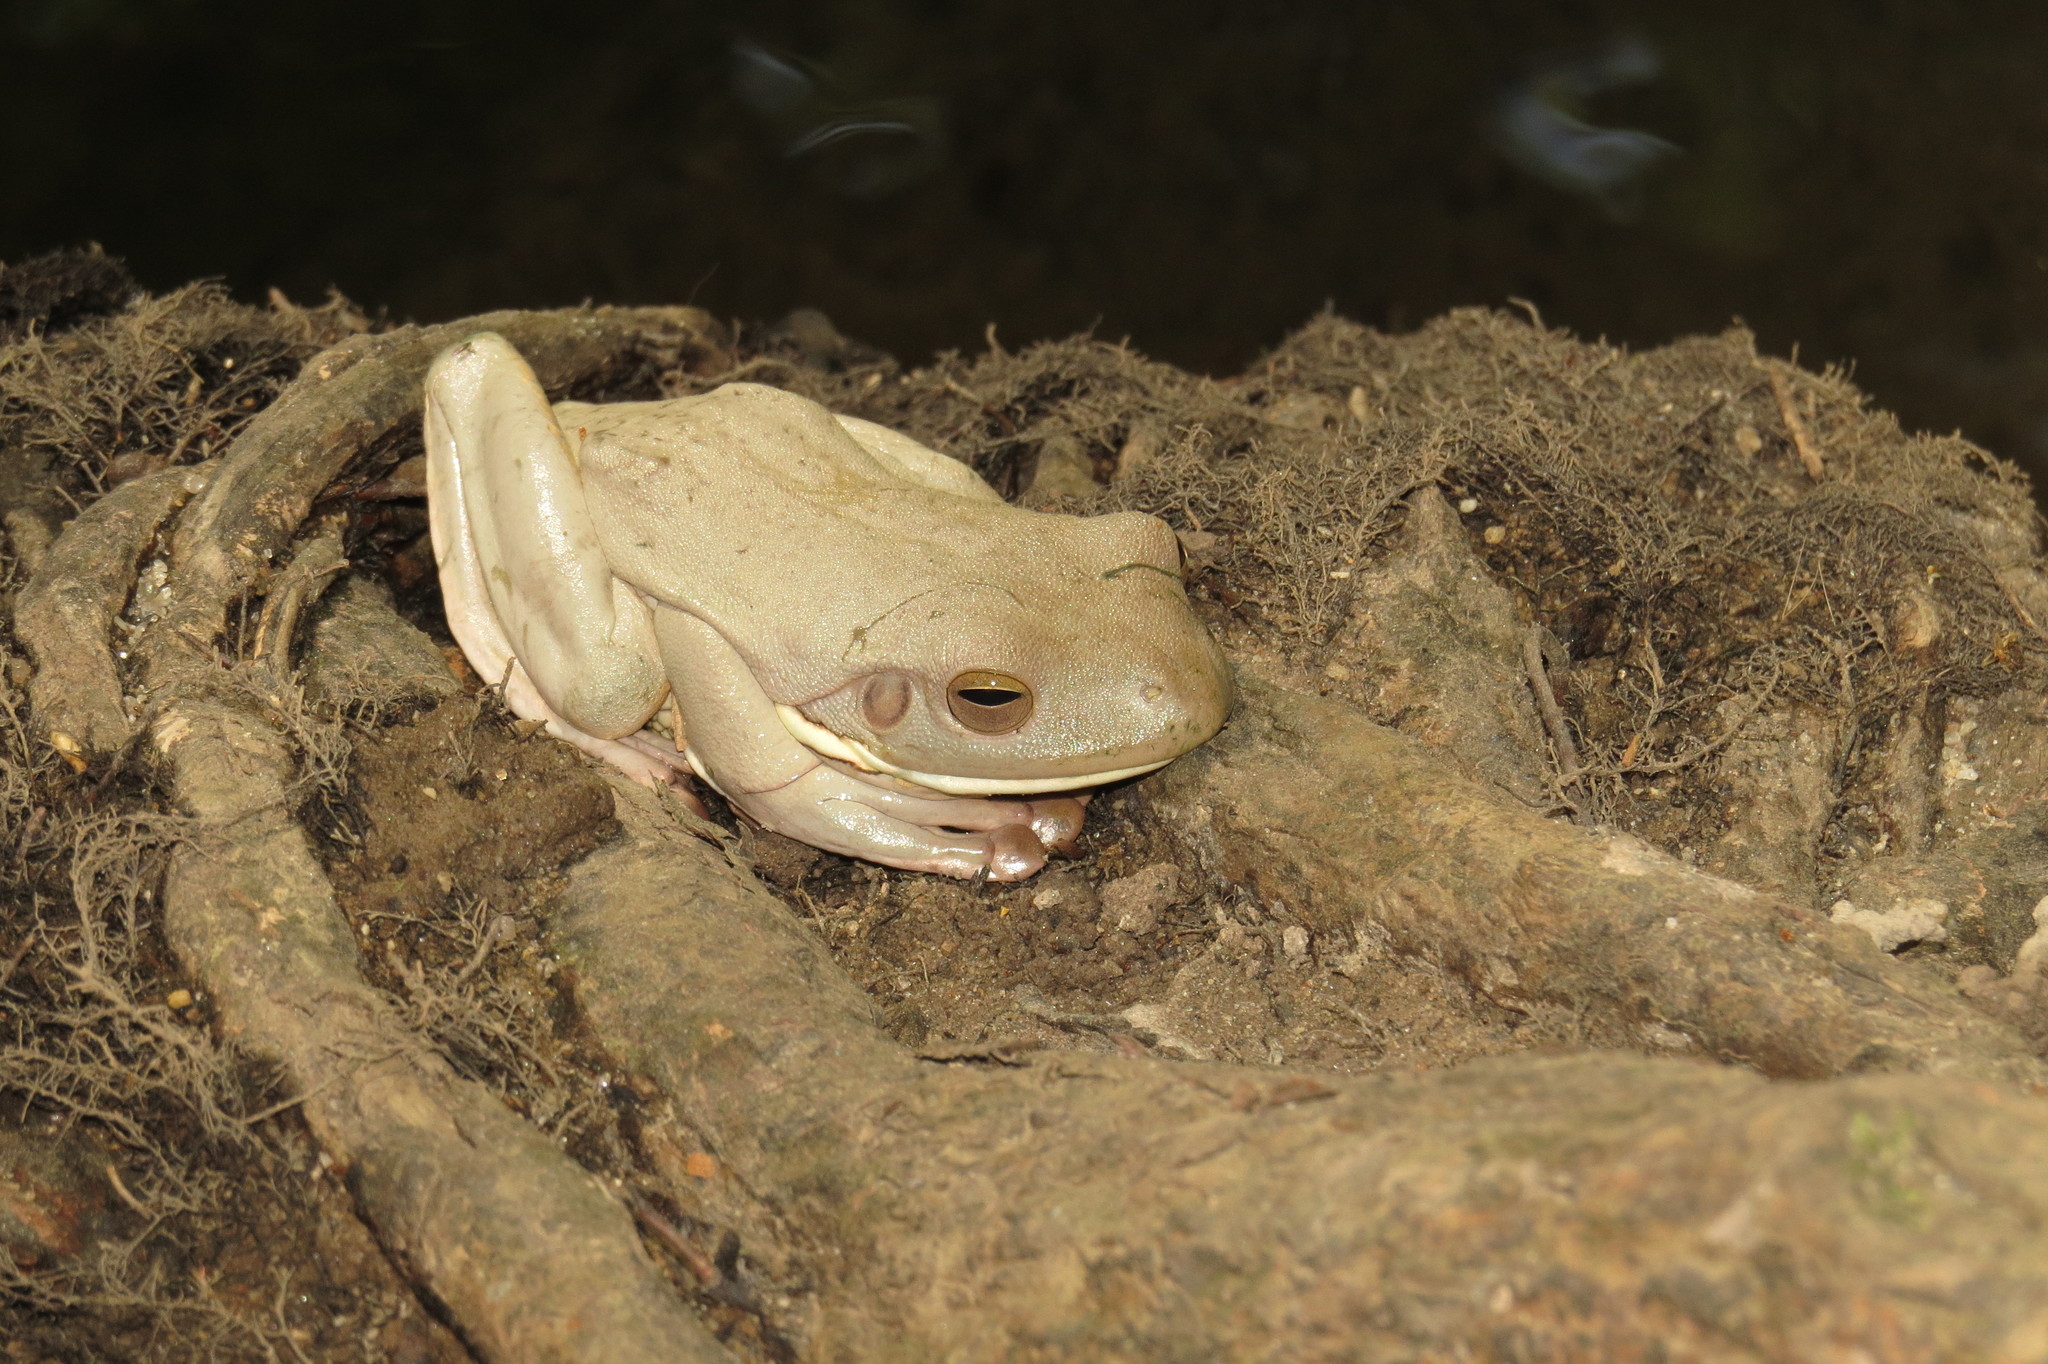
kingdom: Animalia
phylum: Chordata
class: Amphibia
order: Anura
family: Pelodryadidae
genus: Nyctimystes
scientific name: Nyctimystes infrafrenatus
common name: Australian giant treefrog
